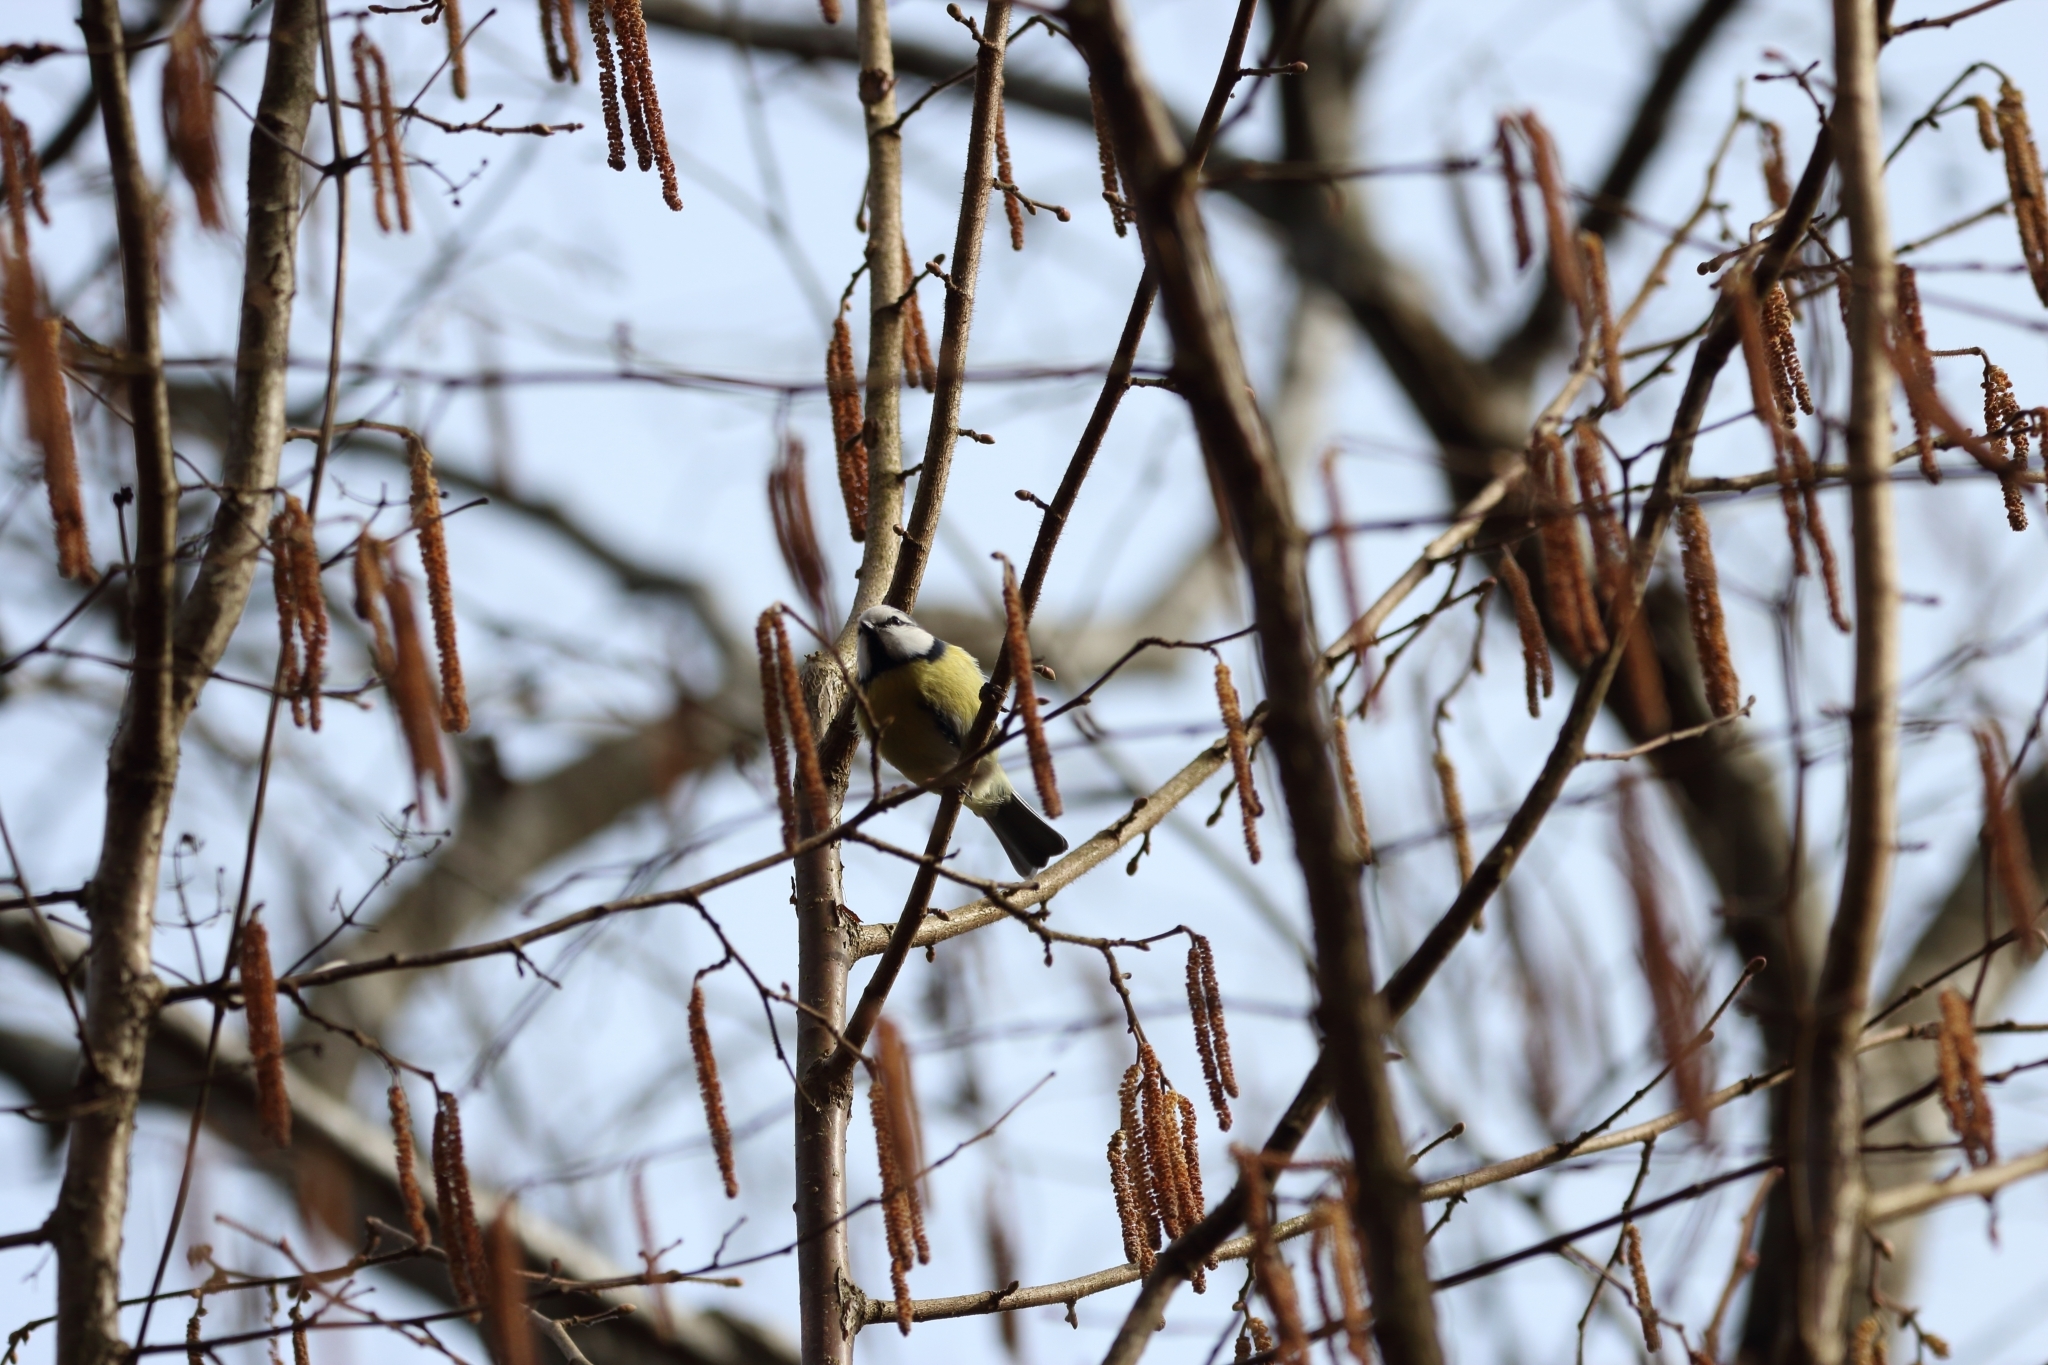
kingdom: Animalia
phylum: Chordata
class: Aves
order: Passeriformes
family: Paridae
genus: Cyanistes
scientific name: Cyanistes caeruleus
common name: Eurasian blue tit
